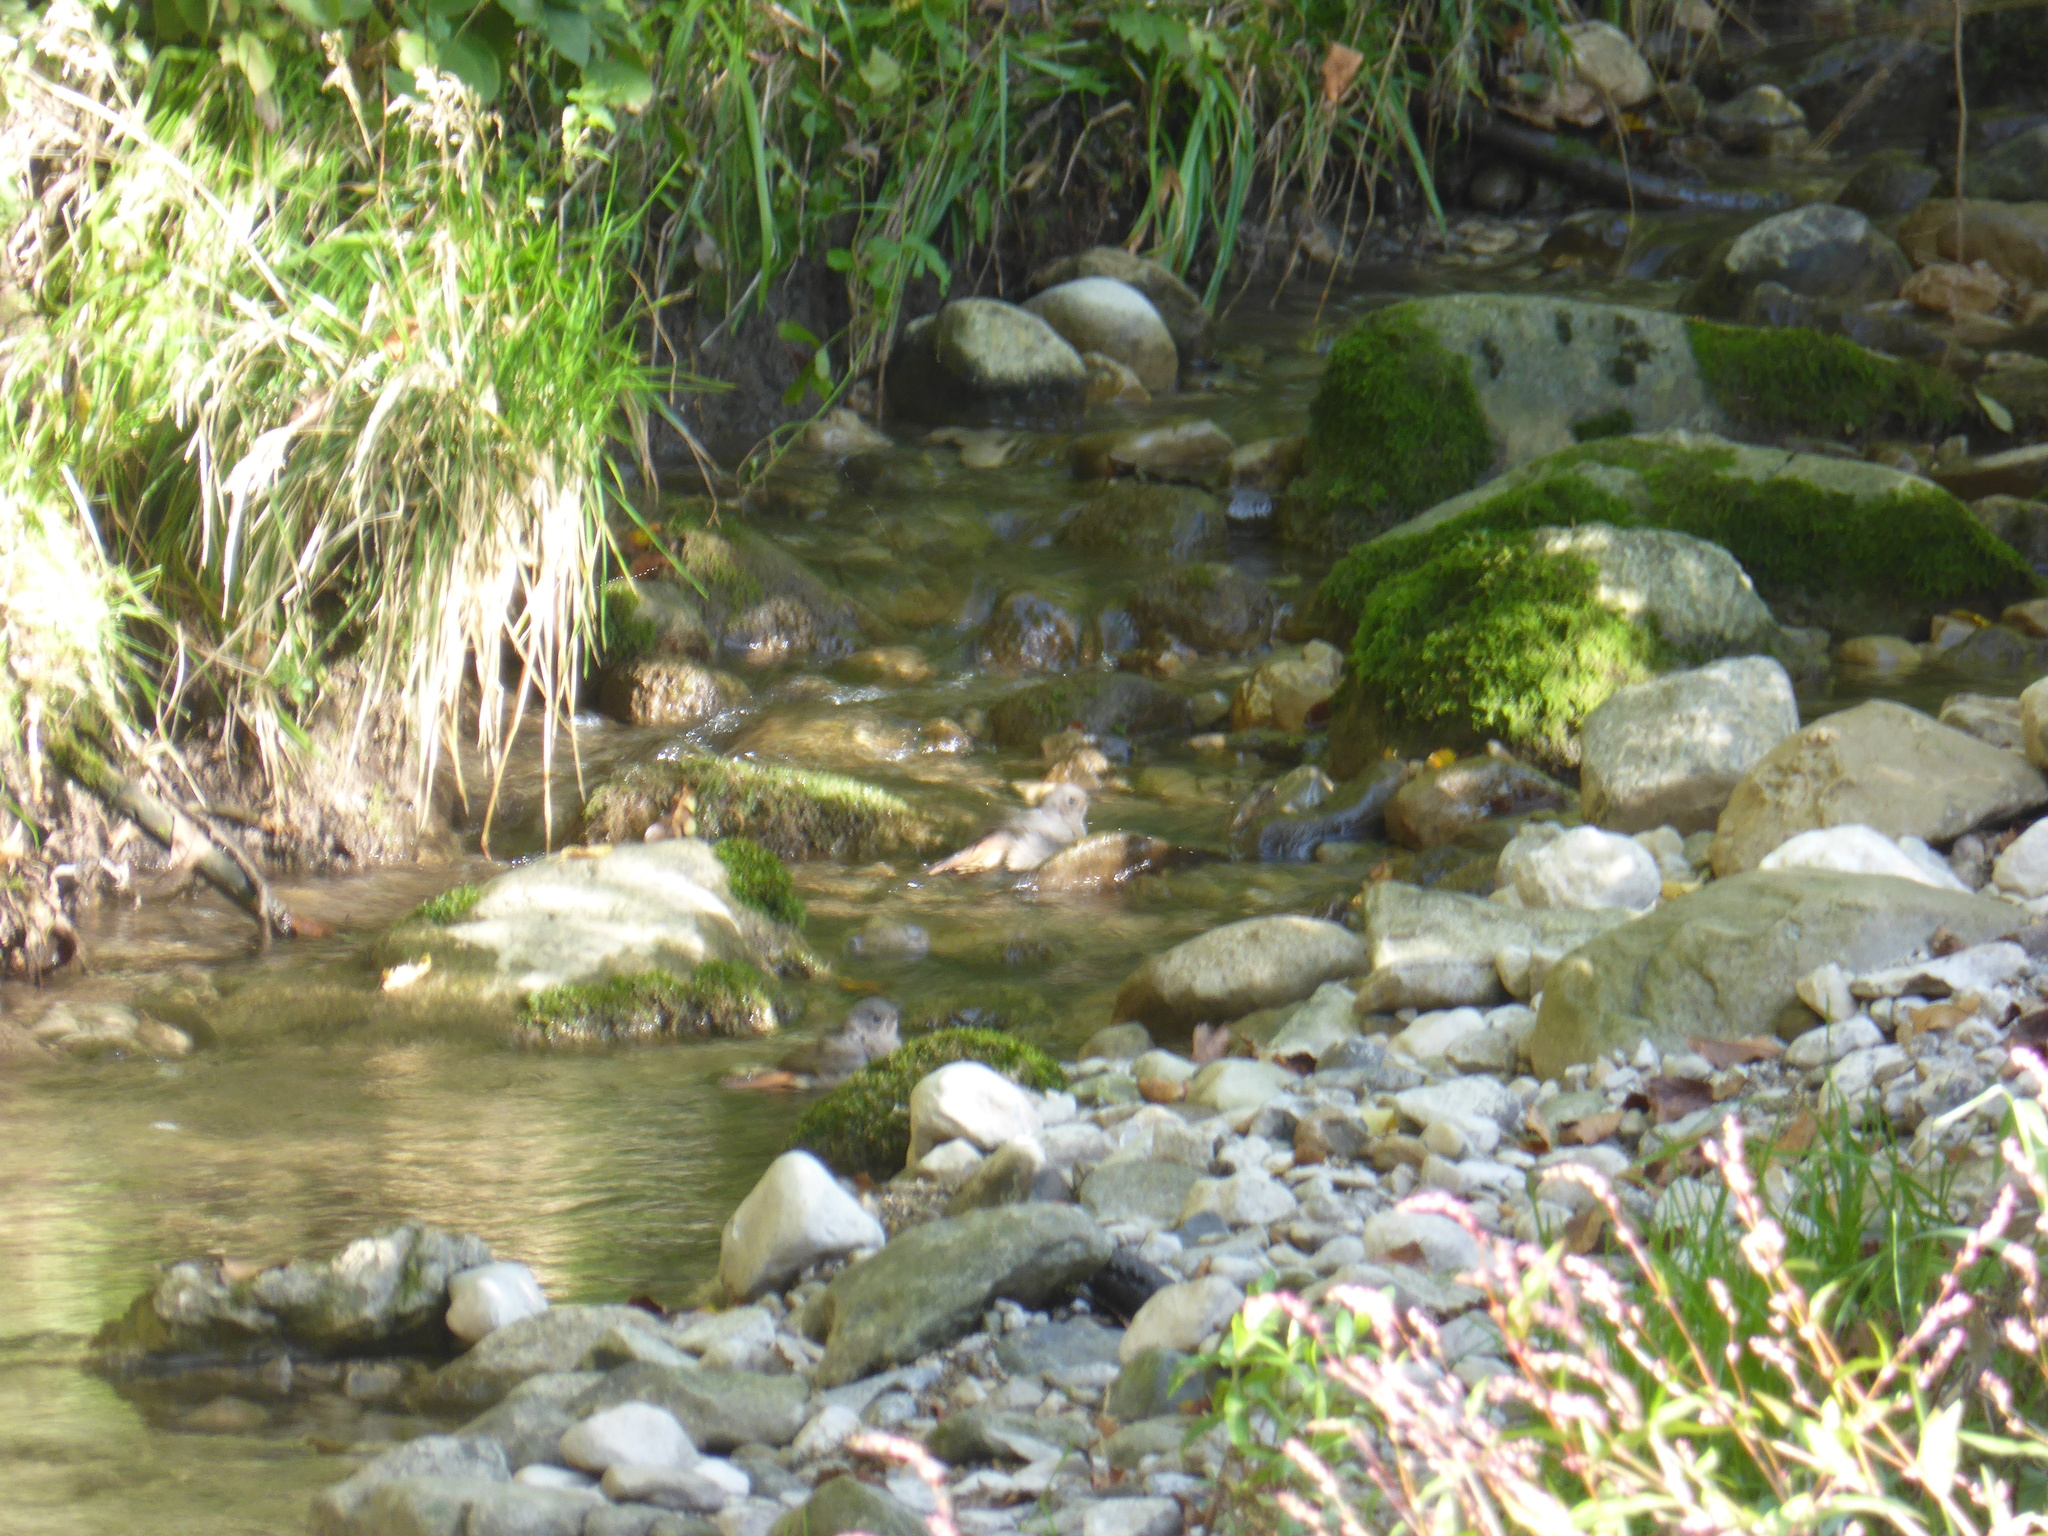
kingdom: Animalia
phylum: Chordata
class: Aves
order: Passeriformes
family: Muscicapidae
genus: Phoenicurus
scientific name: Phoenicurus ochruros
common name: Black redstart
